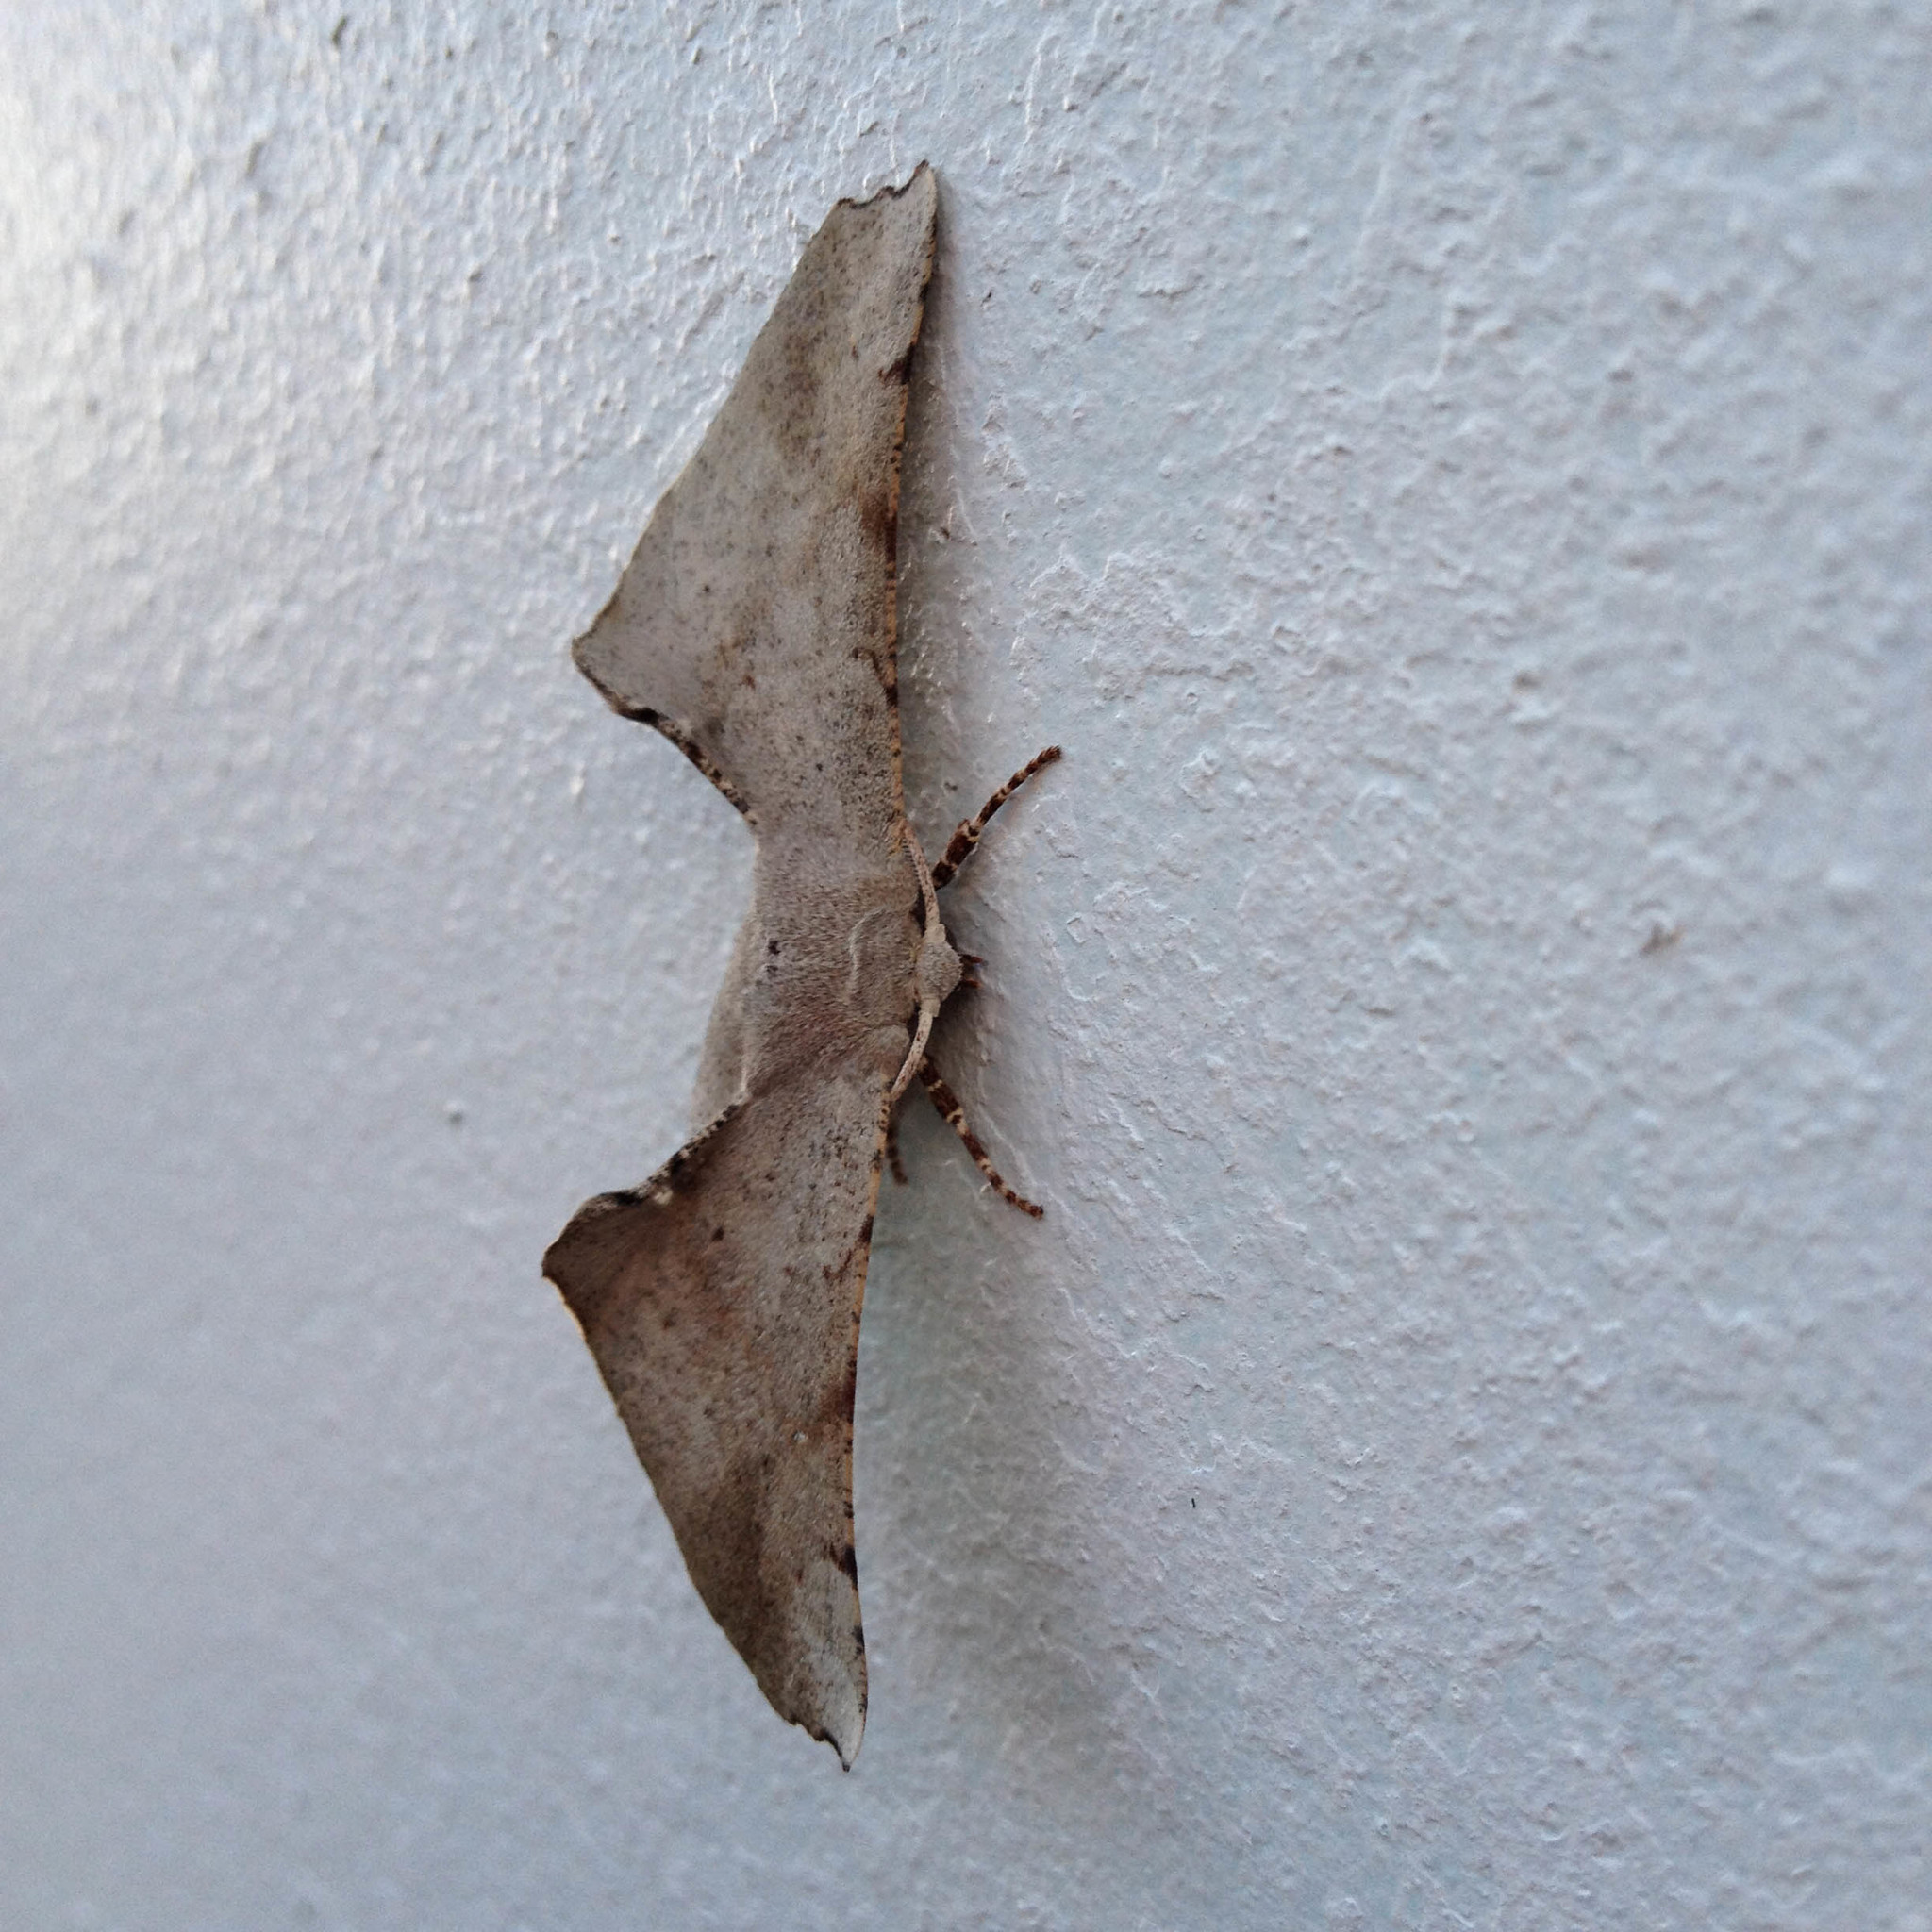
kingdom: Animalia
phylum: Arthropoda
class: Insecta
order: Lepidoptera
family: Geometridae
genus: Circopetes
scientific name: Circopetes obtusata
